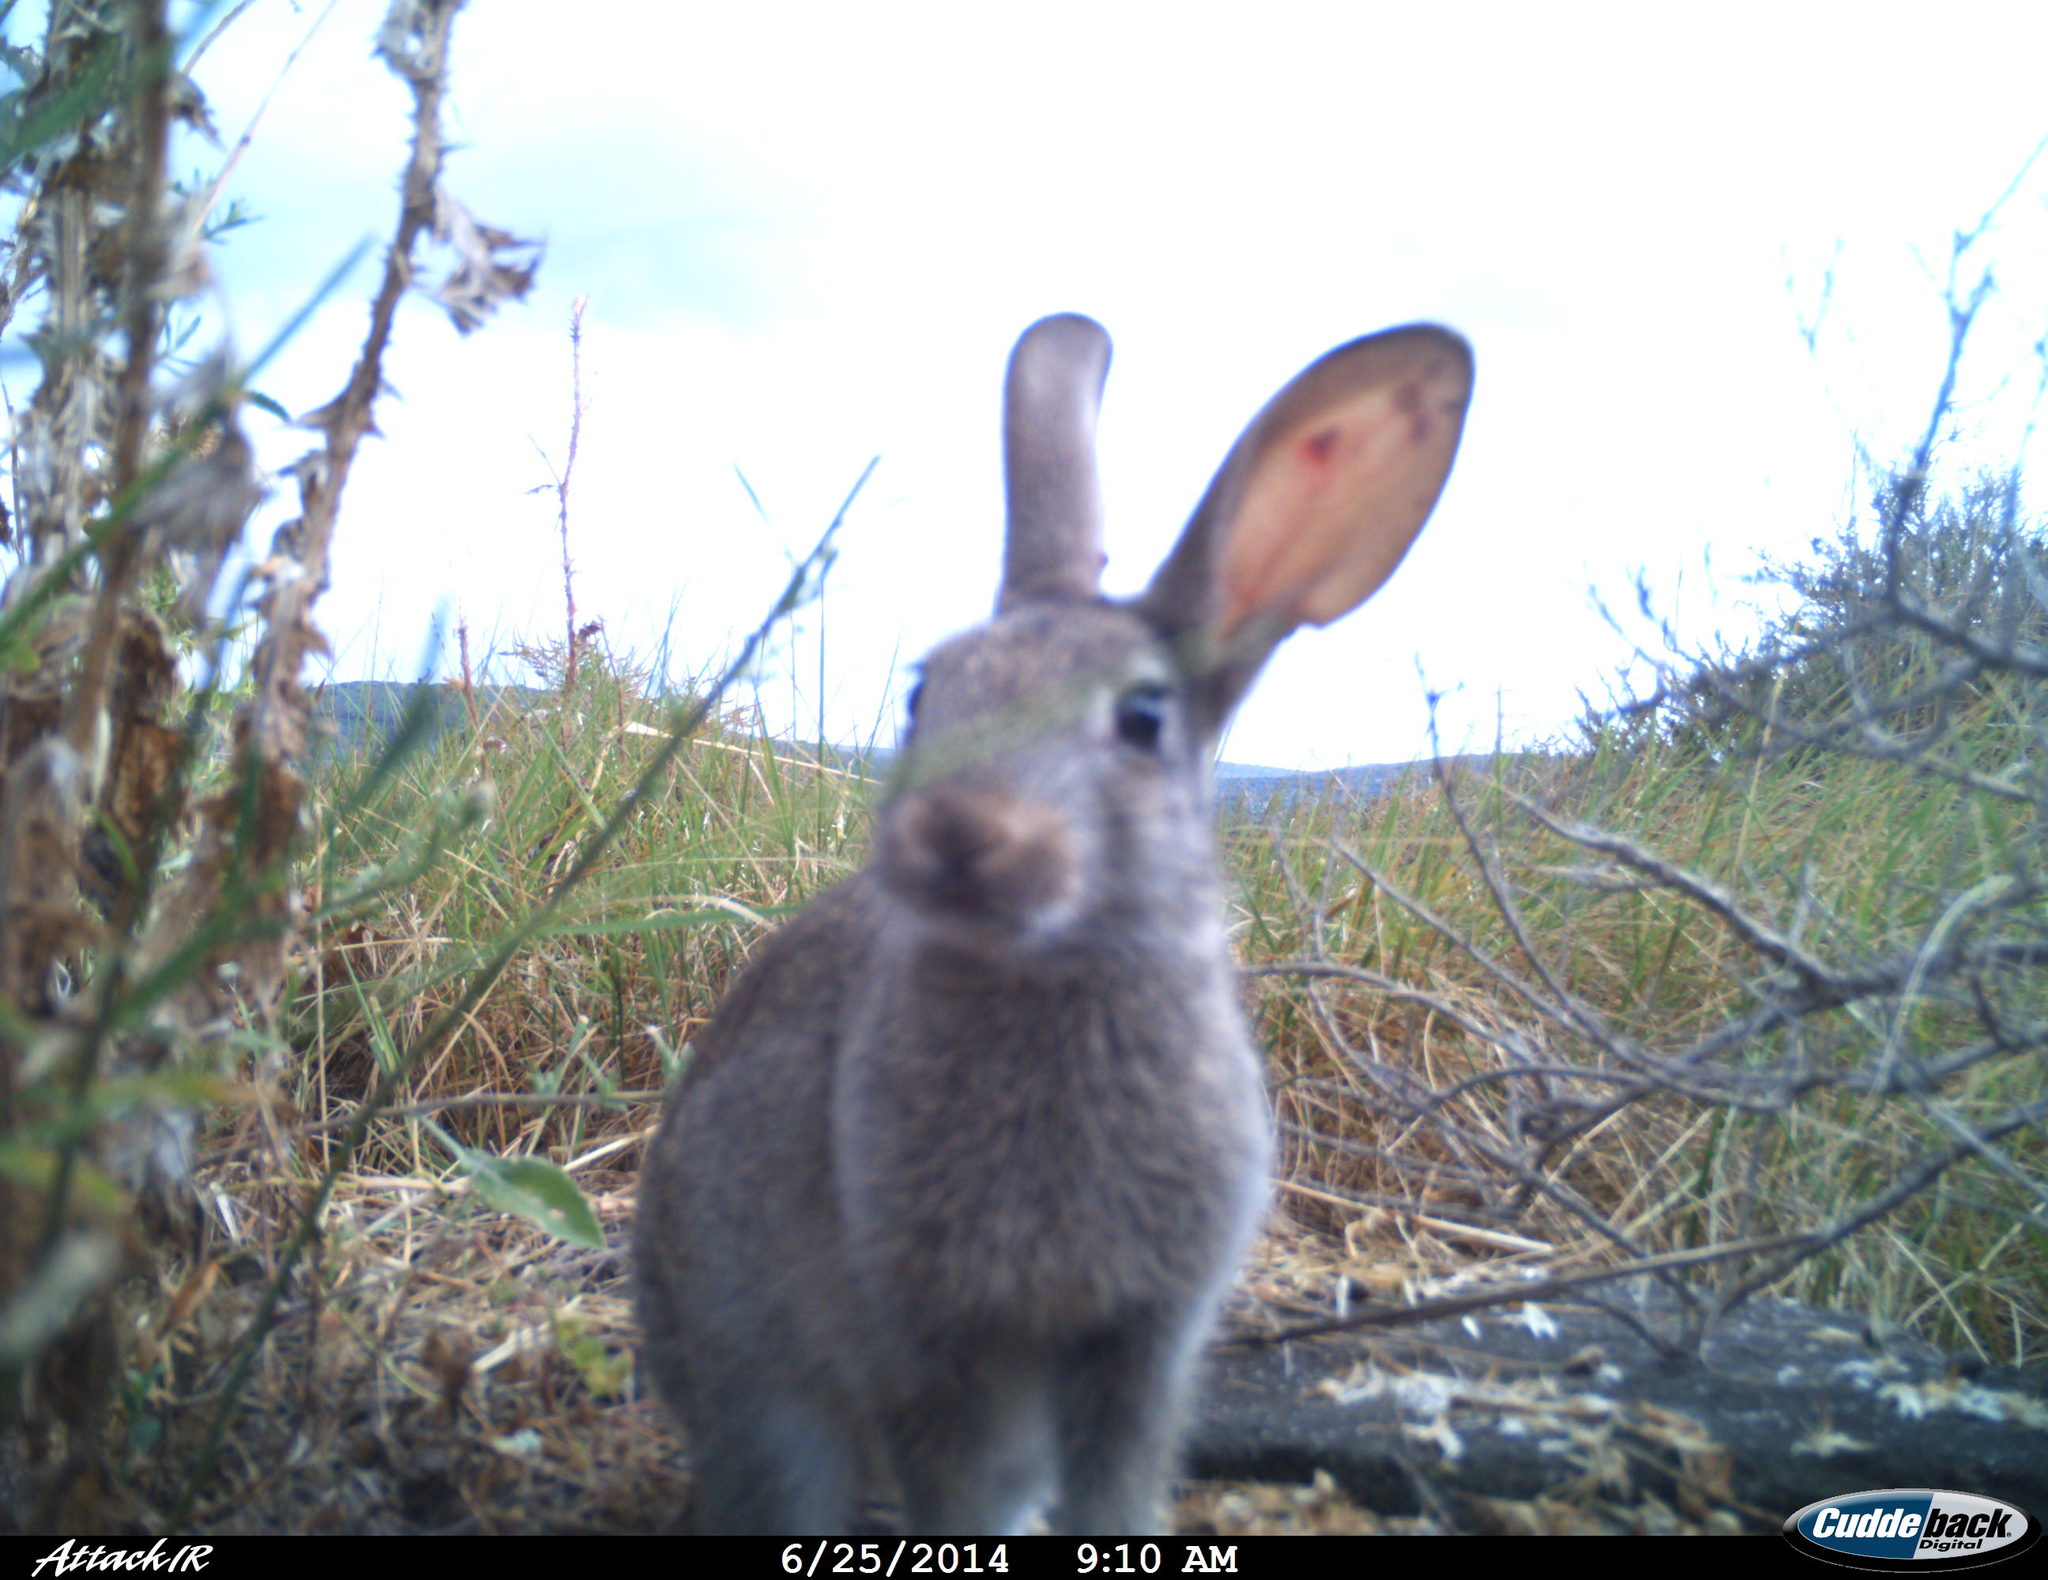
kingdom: Animalia
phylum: Chordata
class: Mammalia
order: Lagomorpha
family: Leporidae
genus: Oryctolagus
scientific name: Oryctolagus cuniculus
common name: European rabbit
